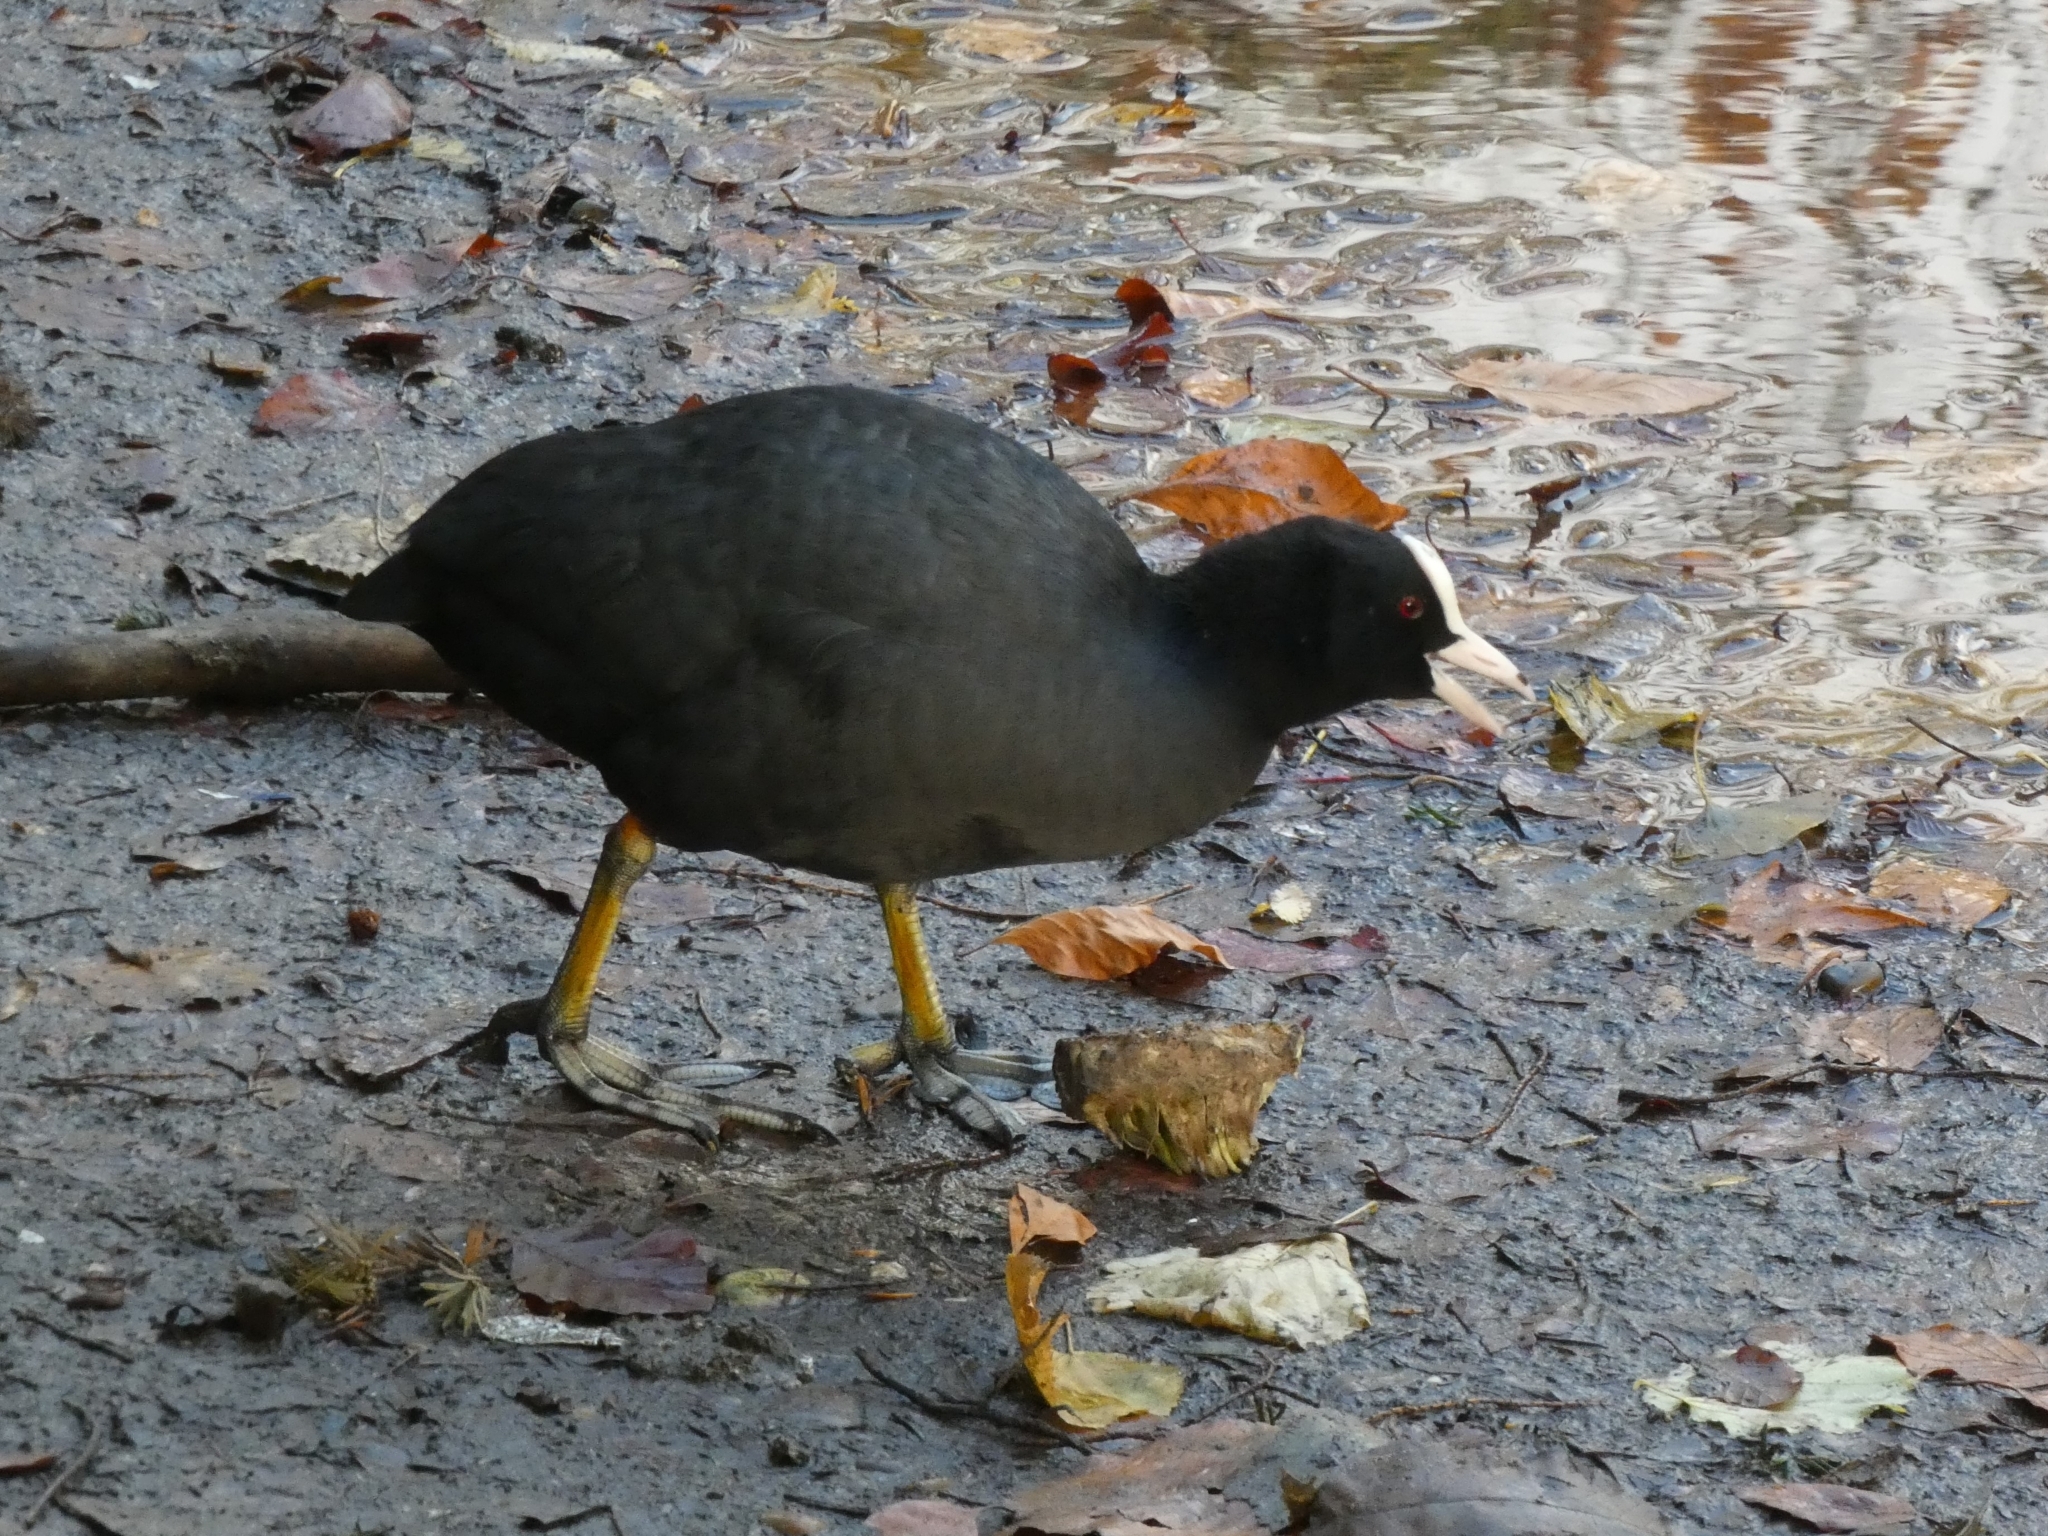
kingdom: Animalia
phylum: Chordata
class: Aves
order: Gruiformes
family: Rallidae
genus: Fulica
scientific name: Fulica atra
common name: Eurasian coot
